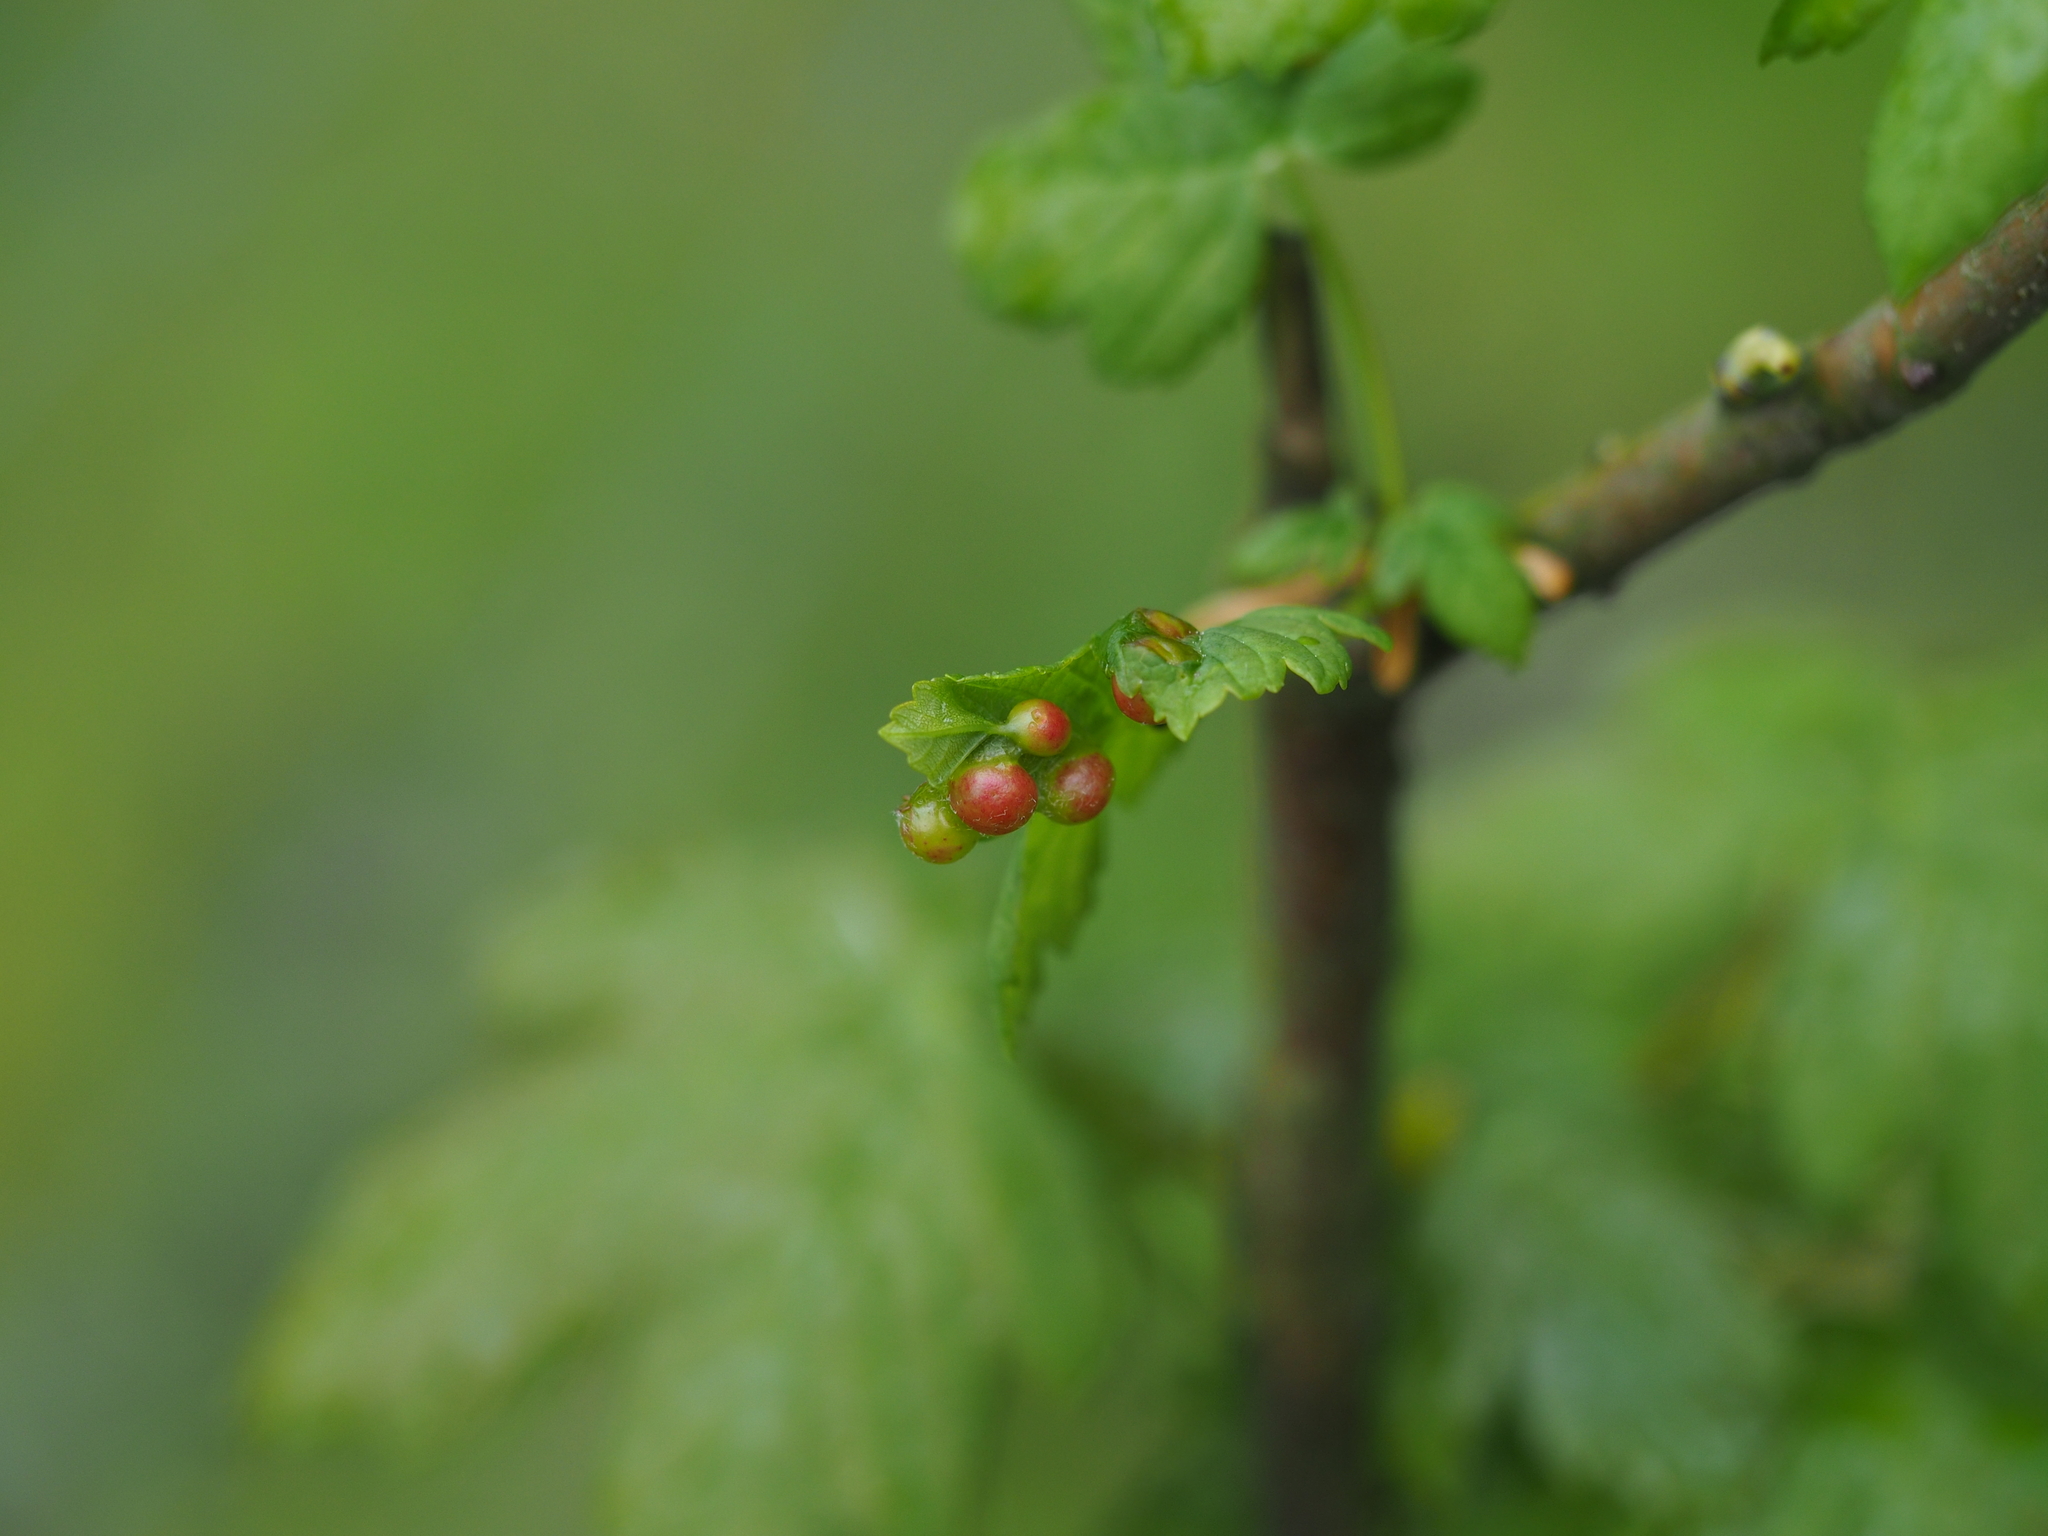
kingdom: Animalia
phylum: Arthropoda
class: Insecta
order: Hymenoptera
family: Cynipidae
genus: Pediaspis
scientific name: Pediaspis aceris
